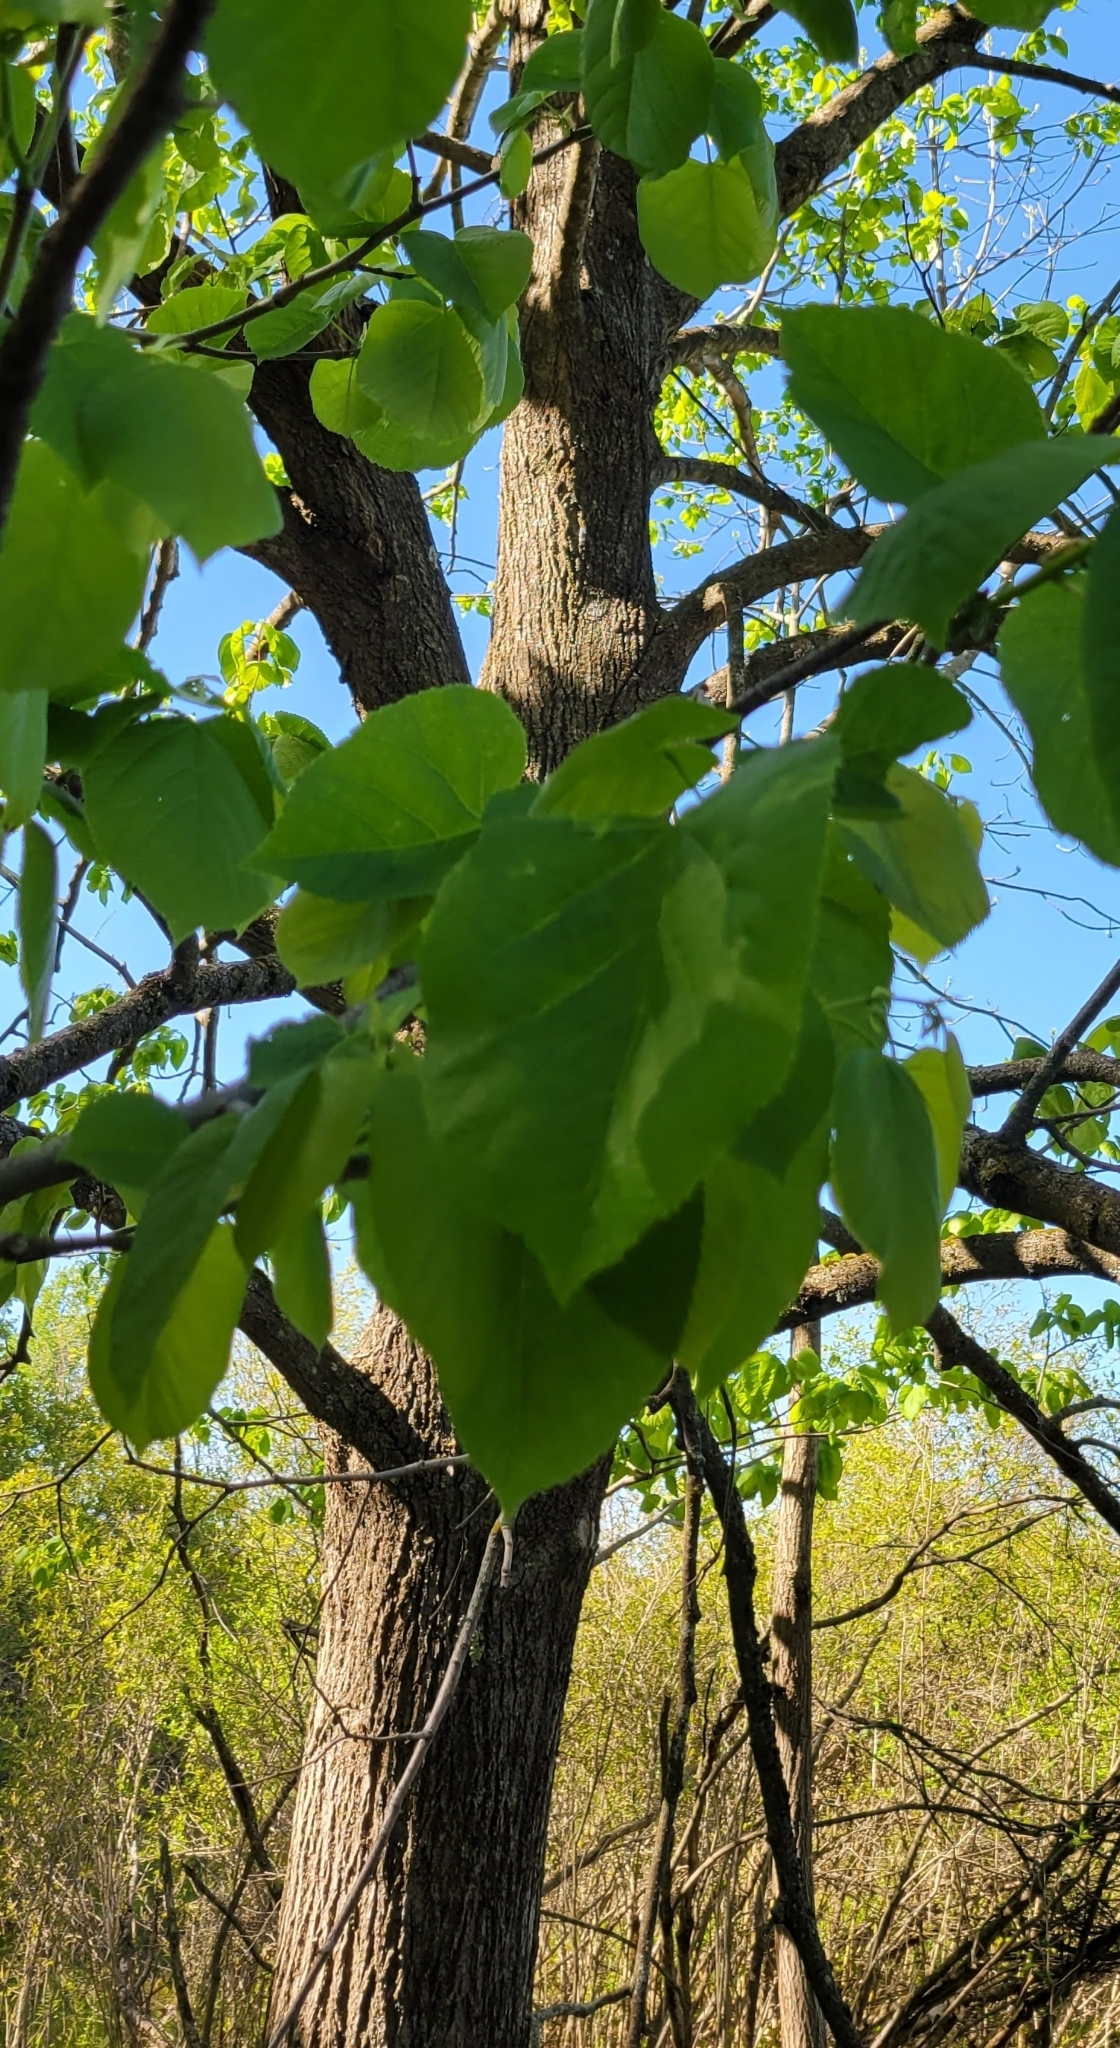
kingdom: Plantae
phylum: Tracheophyta
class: Magnoliopsida
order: Malvales
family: Malvaceae
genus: Tilia
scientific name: Tilia americana
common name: Basswood
